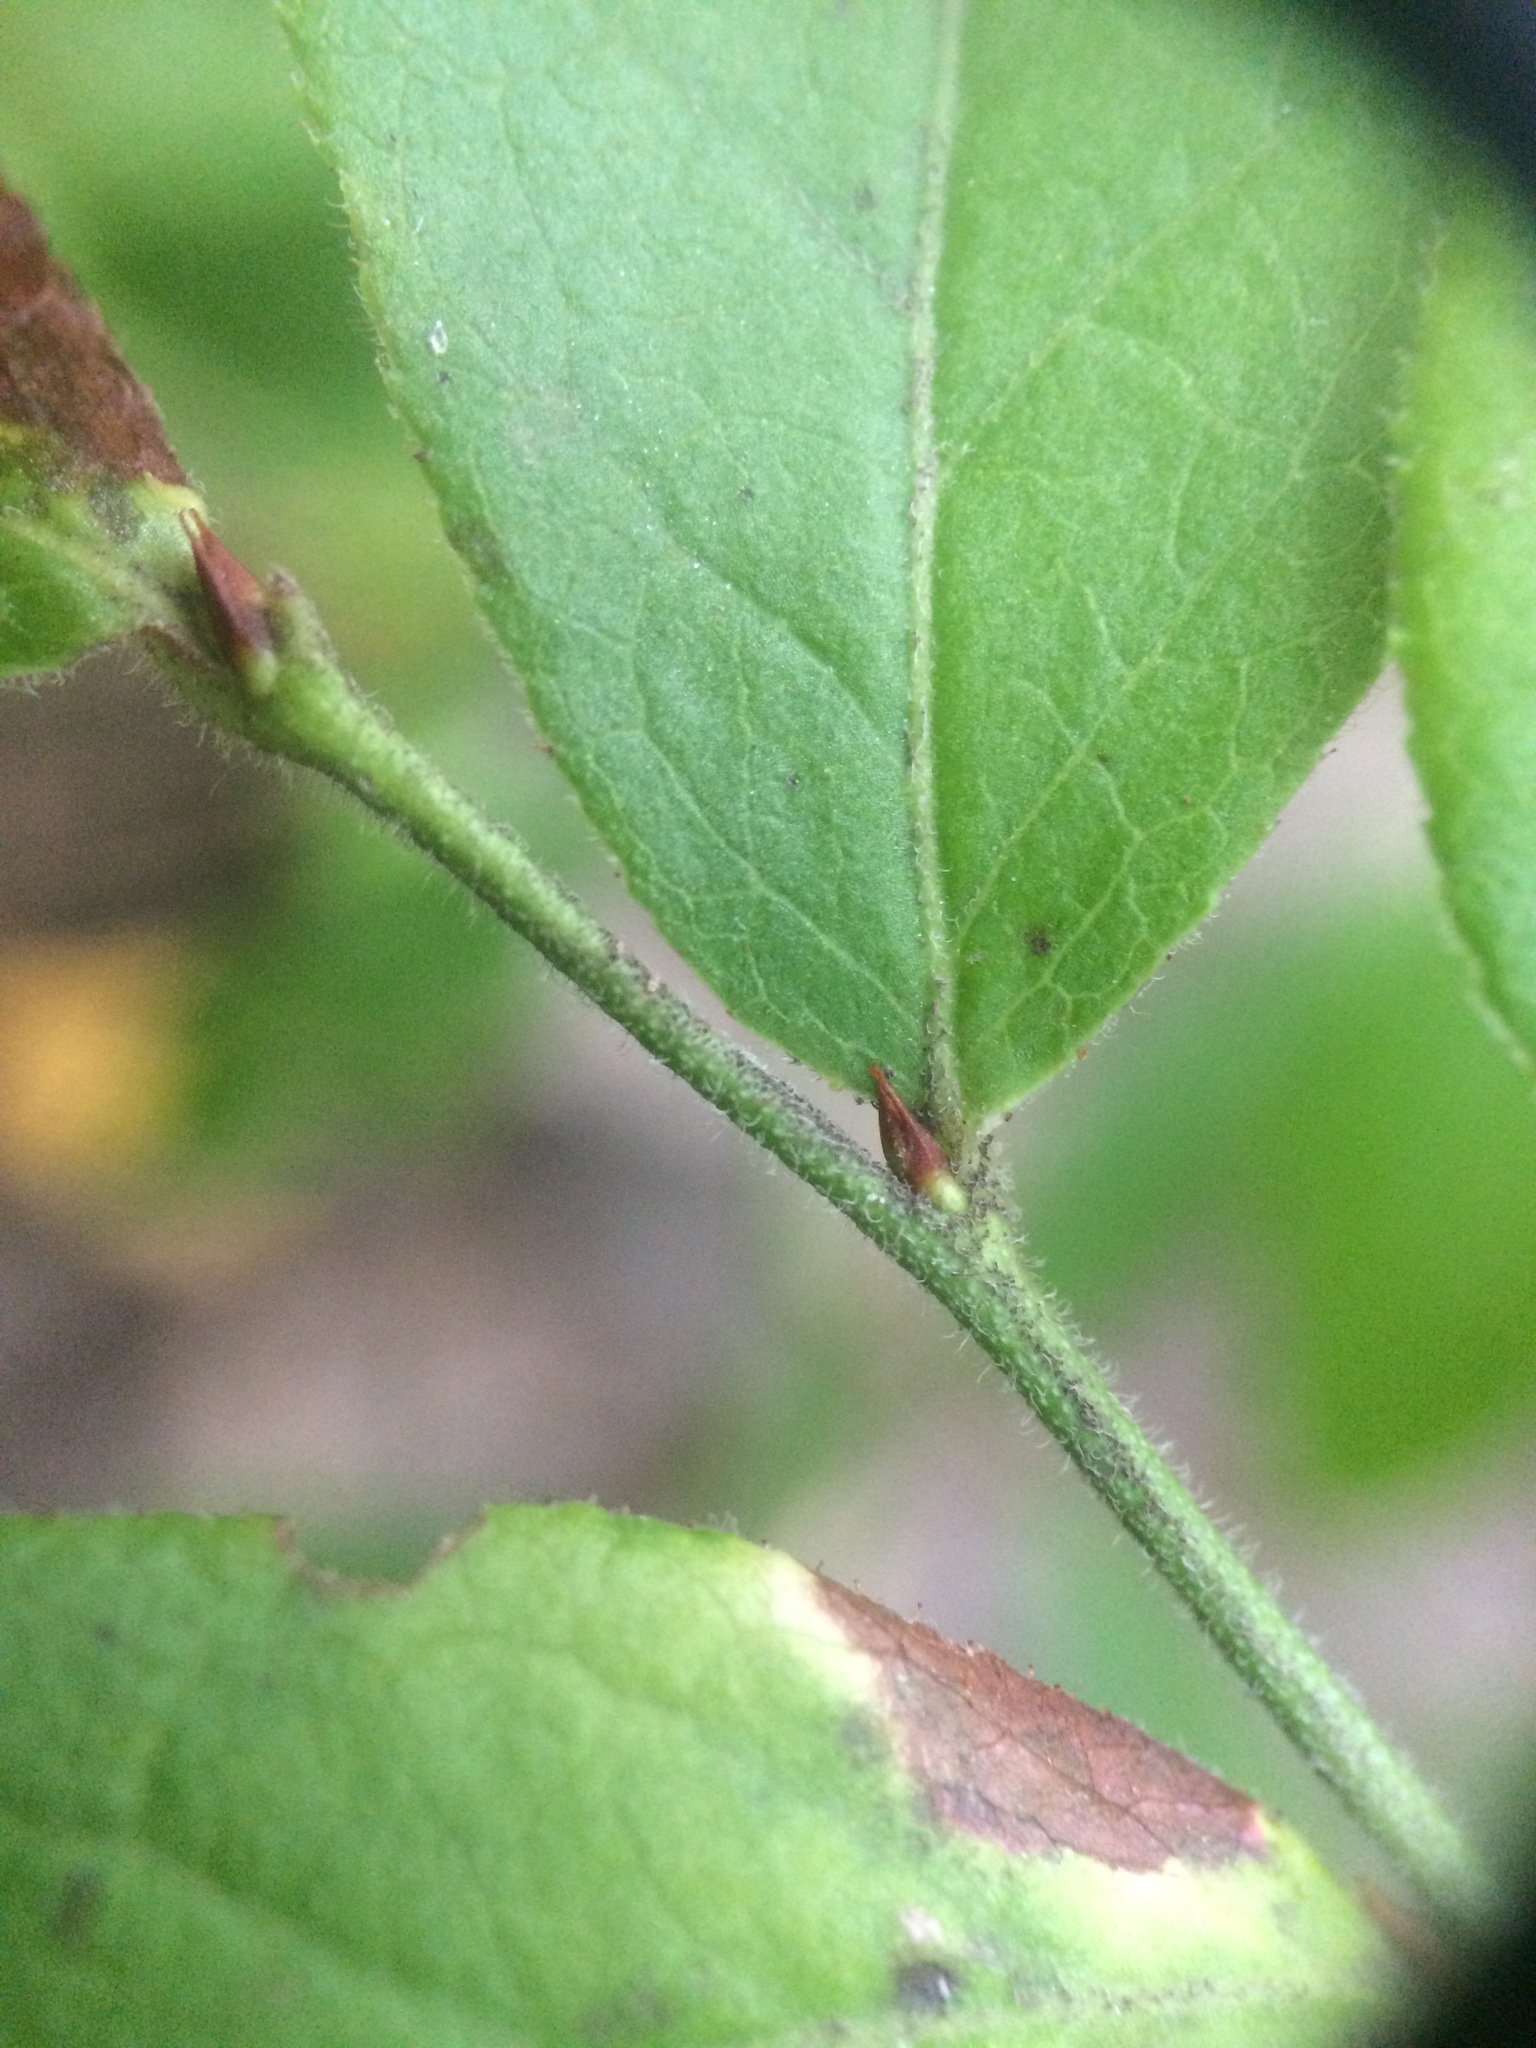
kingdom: Plantae
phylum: Tracheophyta
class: Magnoliopsida
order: Ericales
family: Ericaceae
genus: Vaccinium
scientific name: Vaccinium angustifolium
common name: Early lowbush blueberry
